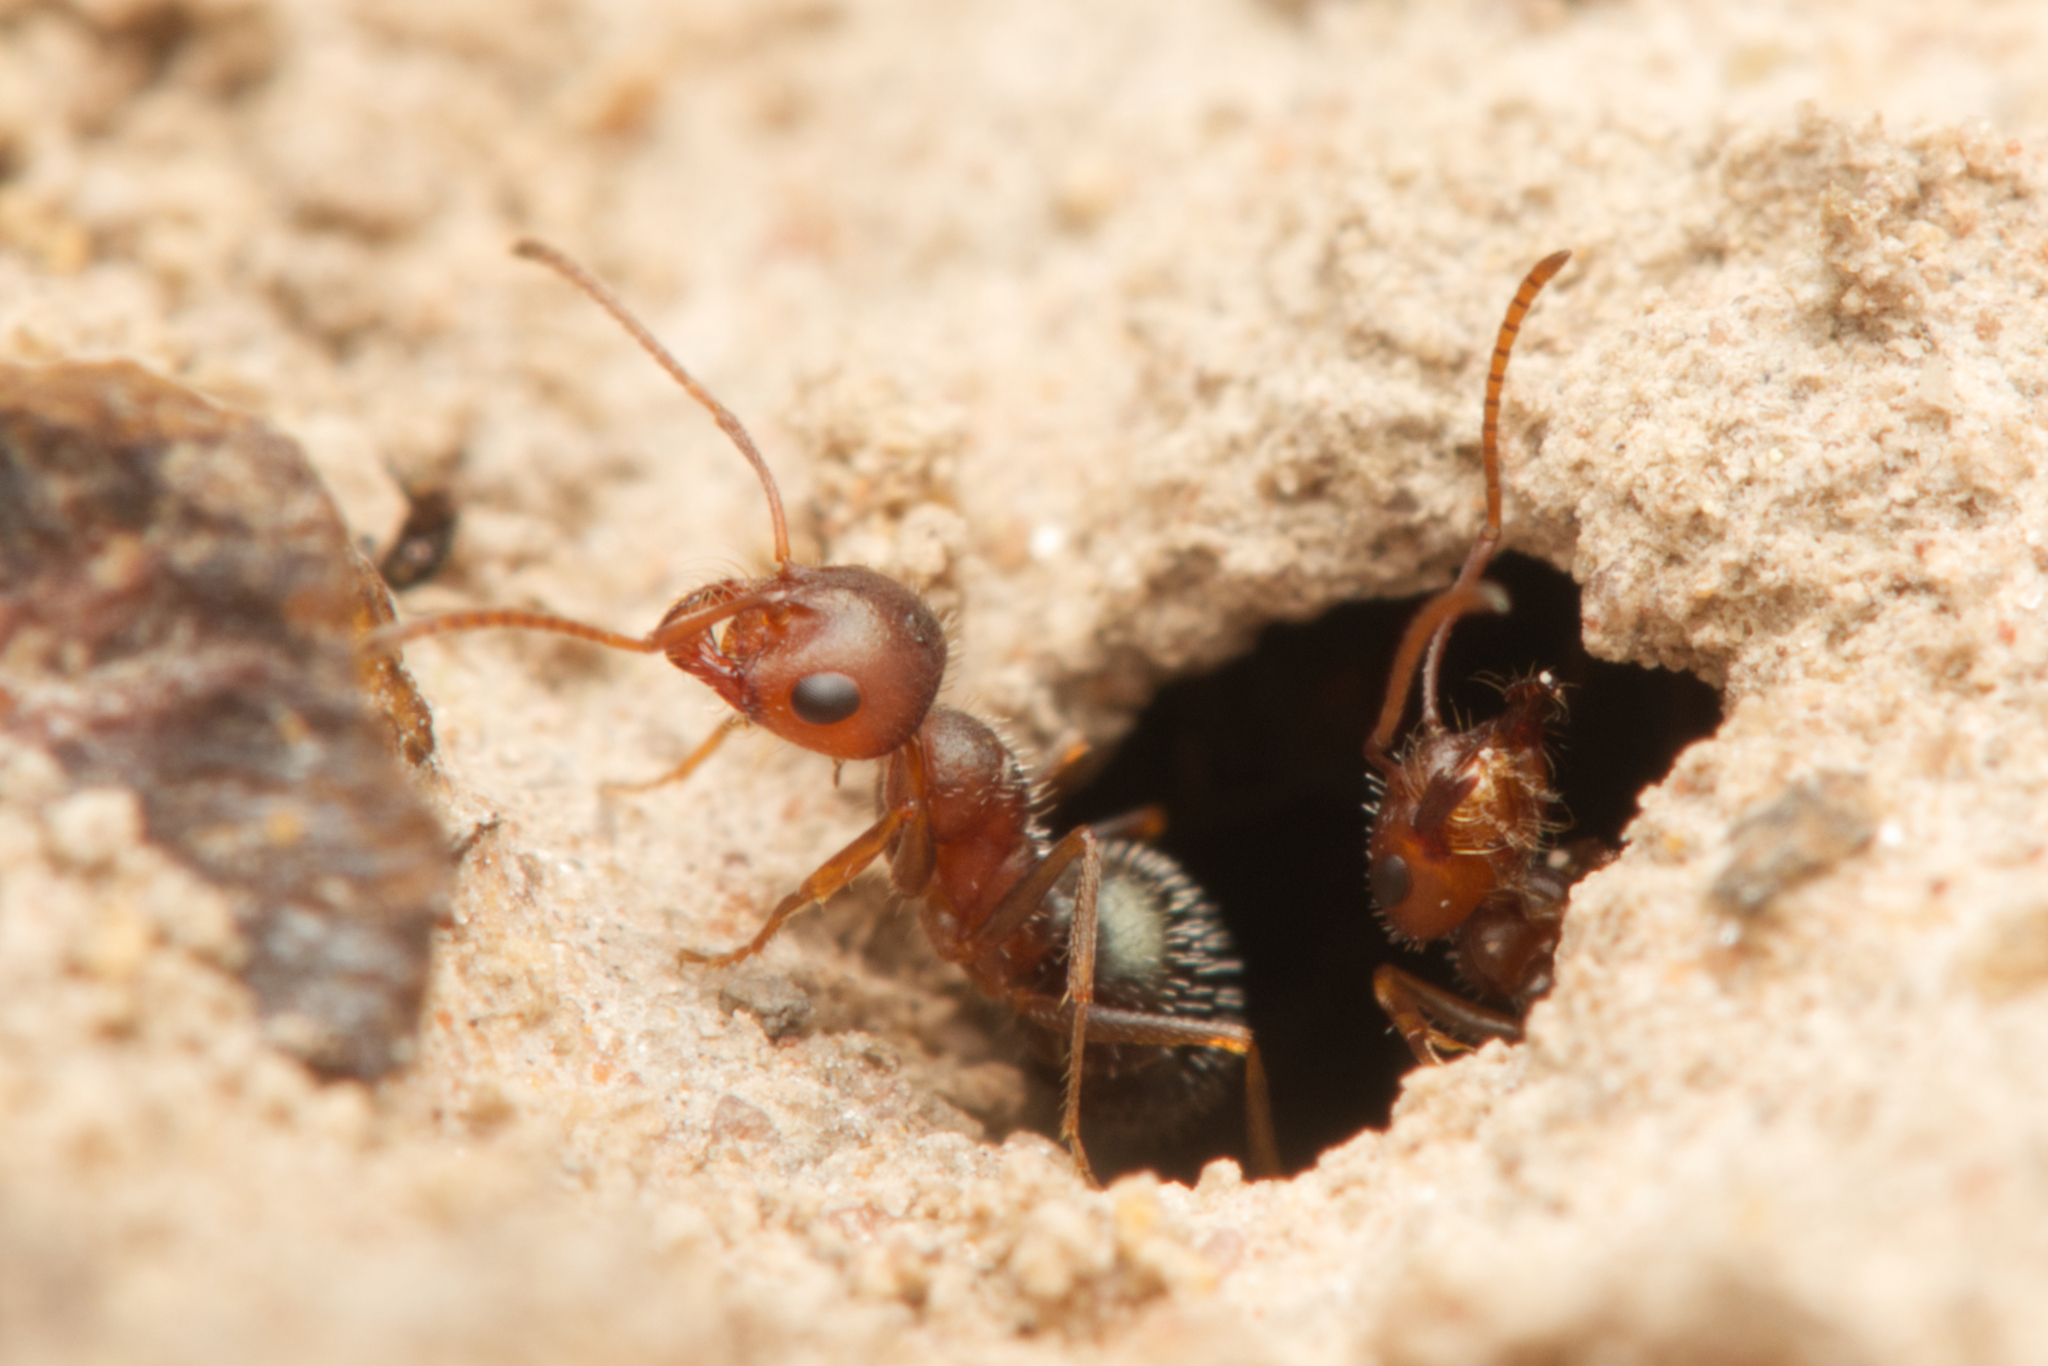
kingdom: Animalia
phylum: Arthropoda
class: Insecta
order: Hymenoptera
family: Formicidae
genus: Melophorus
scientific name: Melophorus bruneus
